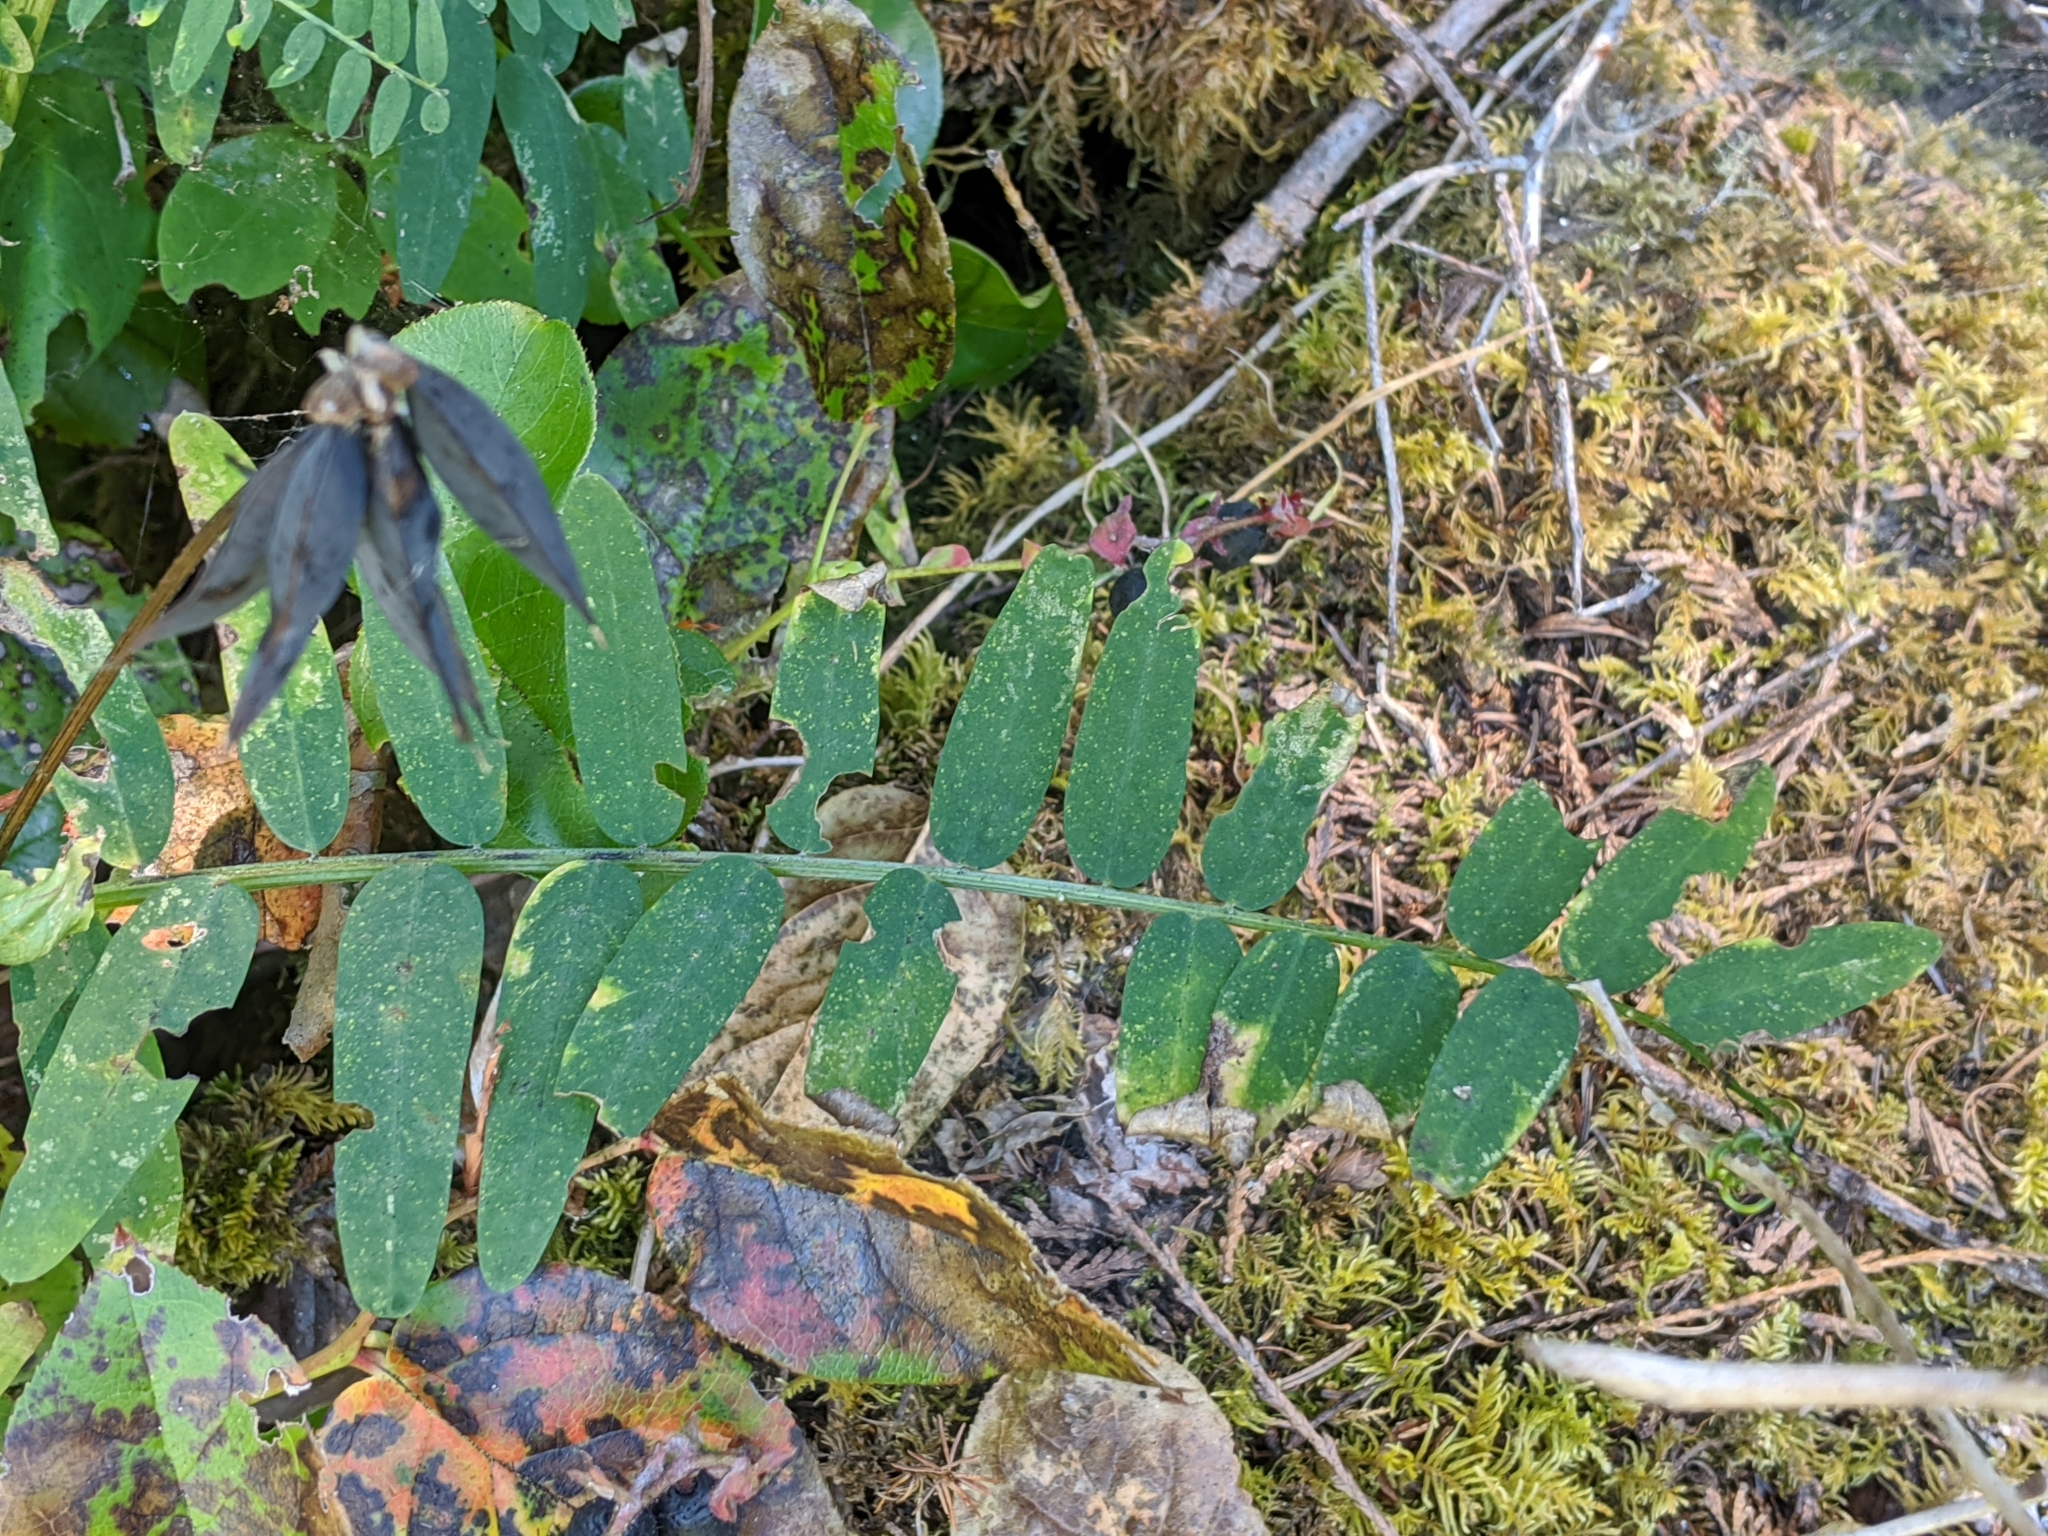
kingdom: Plantae
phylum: Tracheophyta
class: Magnoliopsida
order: Fabales
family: Fabaceae
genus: Vicia
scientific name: Vicia
